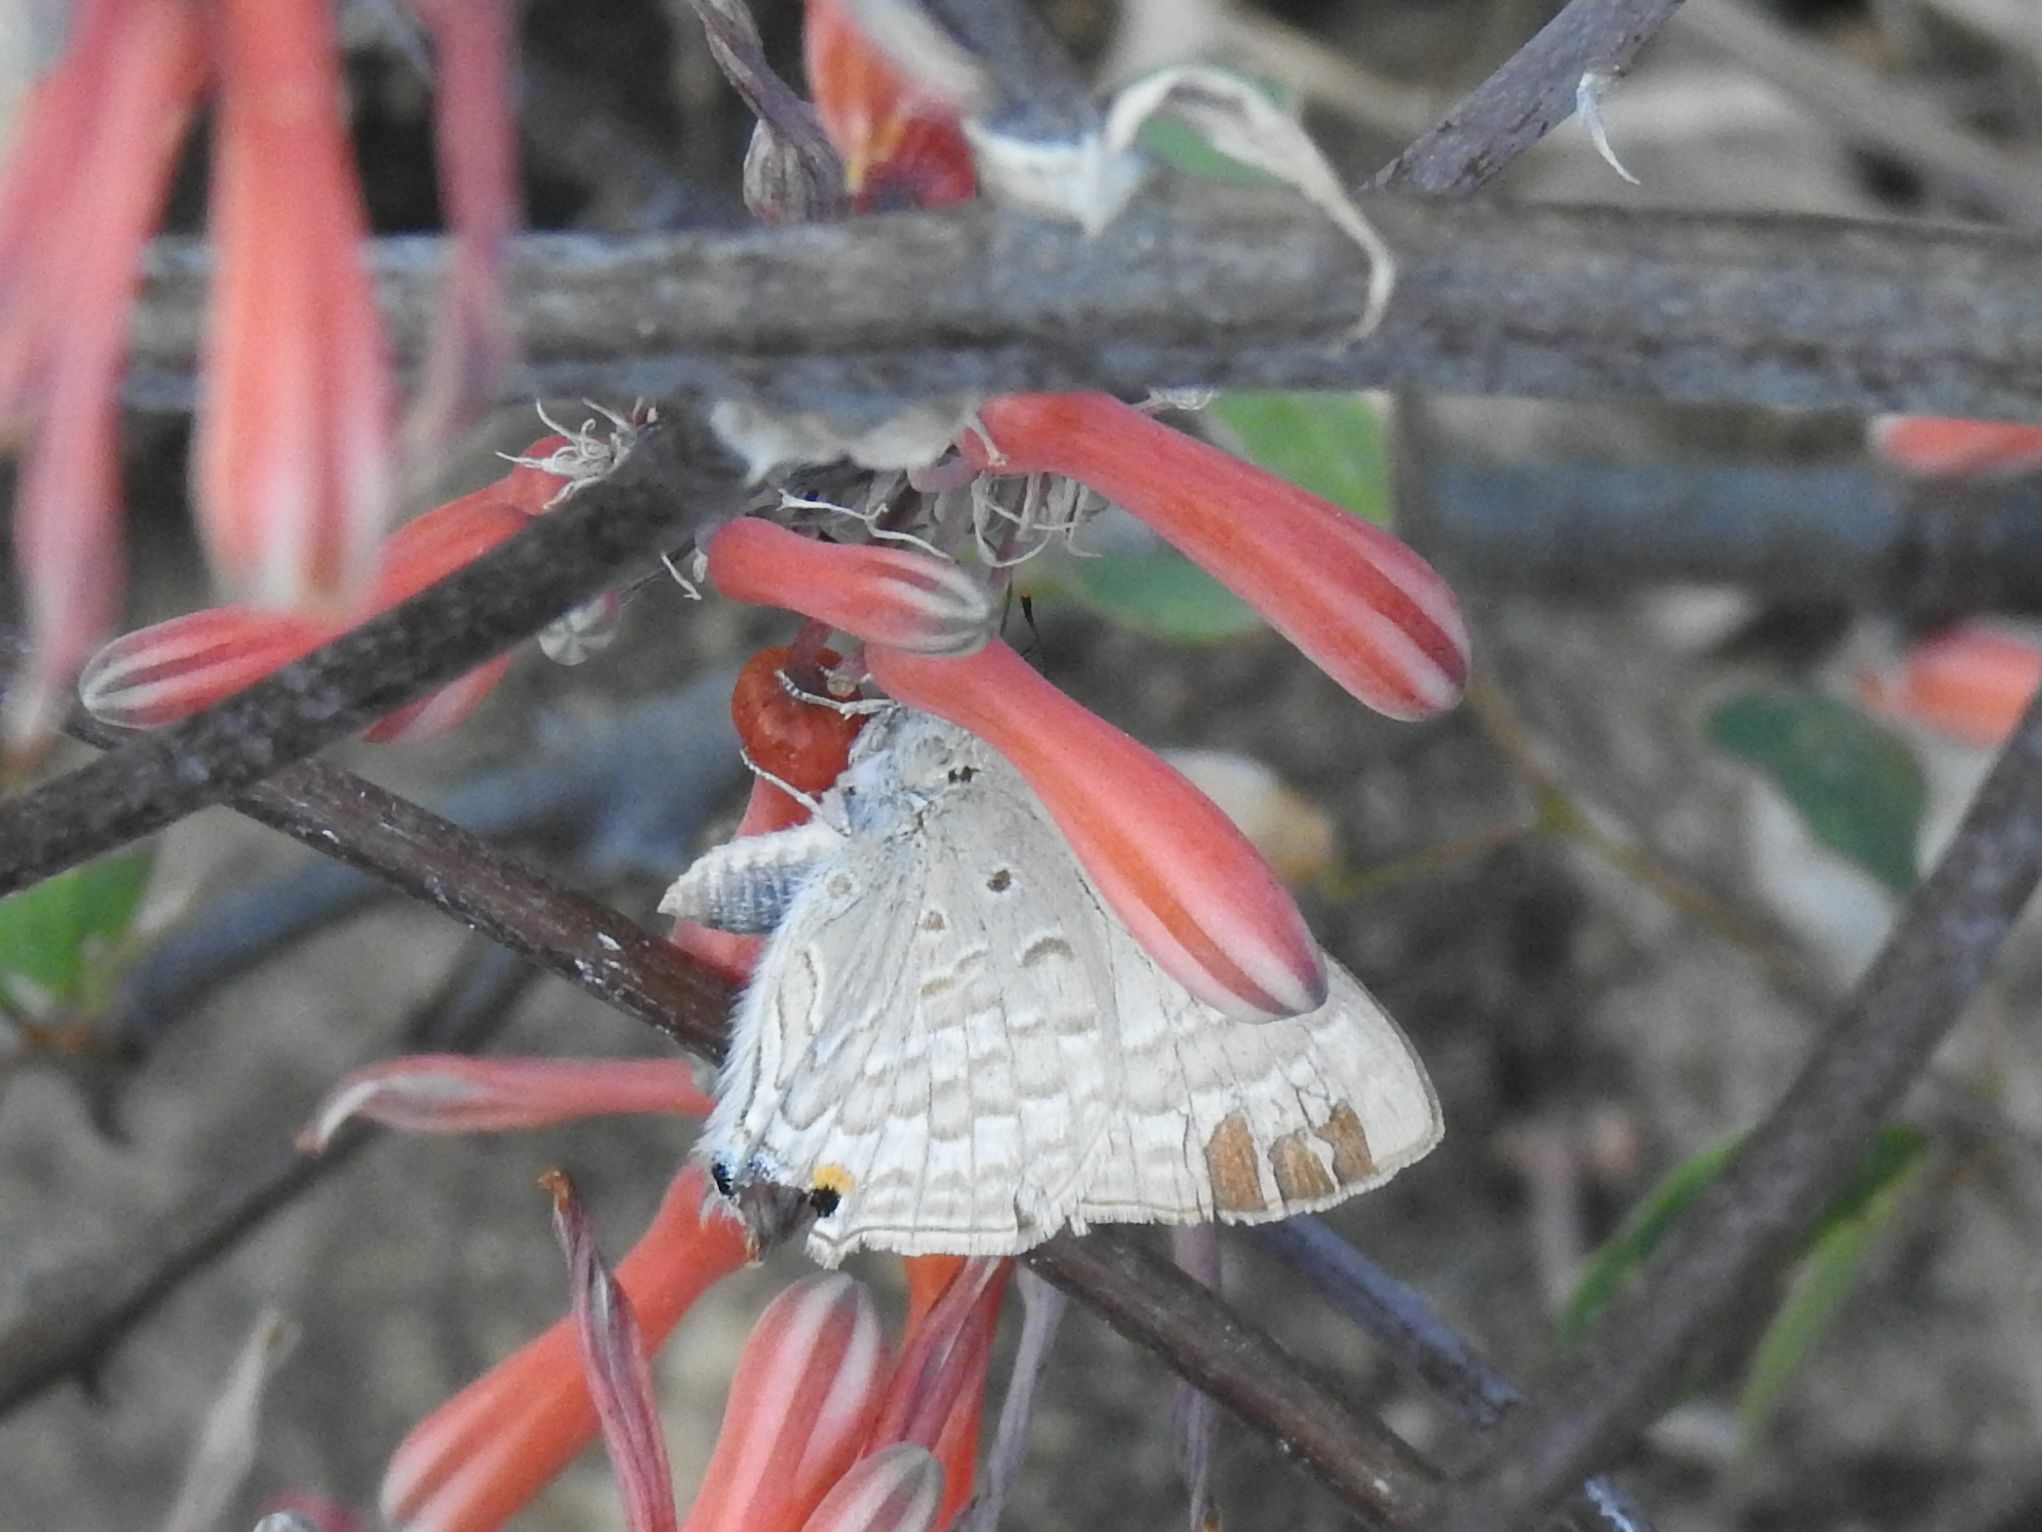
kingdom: Animalia
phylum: Arthropoda
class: Insecta
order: Lepidoptera
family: Lycaenidae
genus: Deudorix
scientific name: Deudorix antalus
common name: Brown playboy
